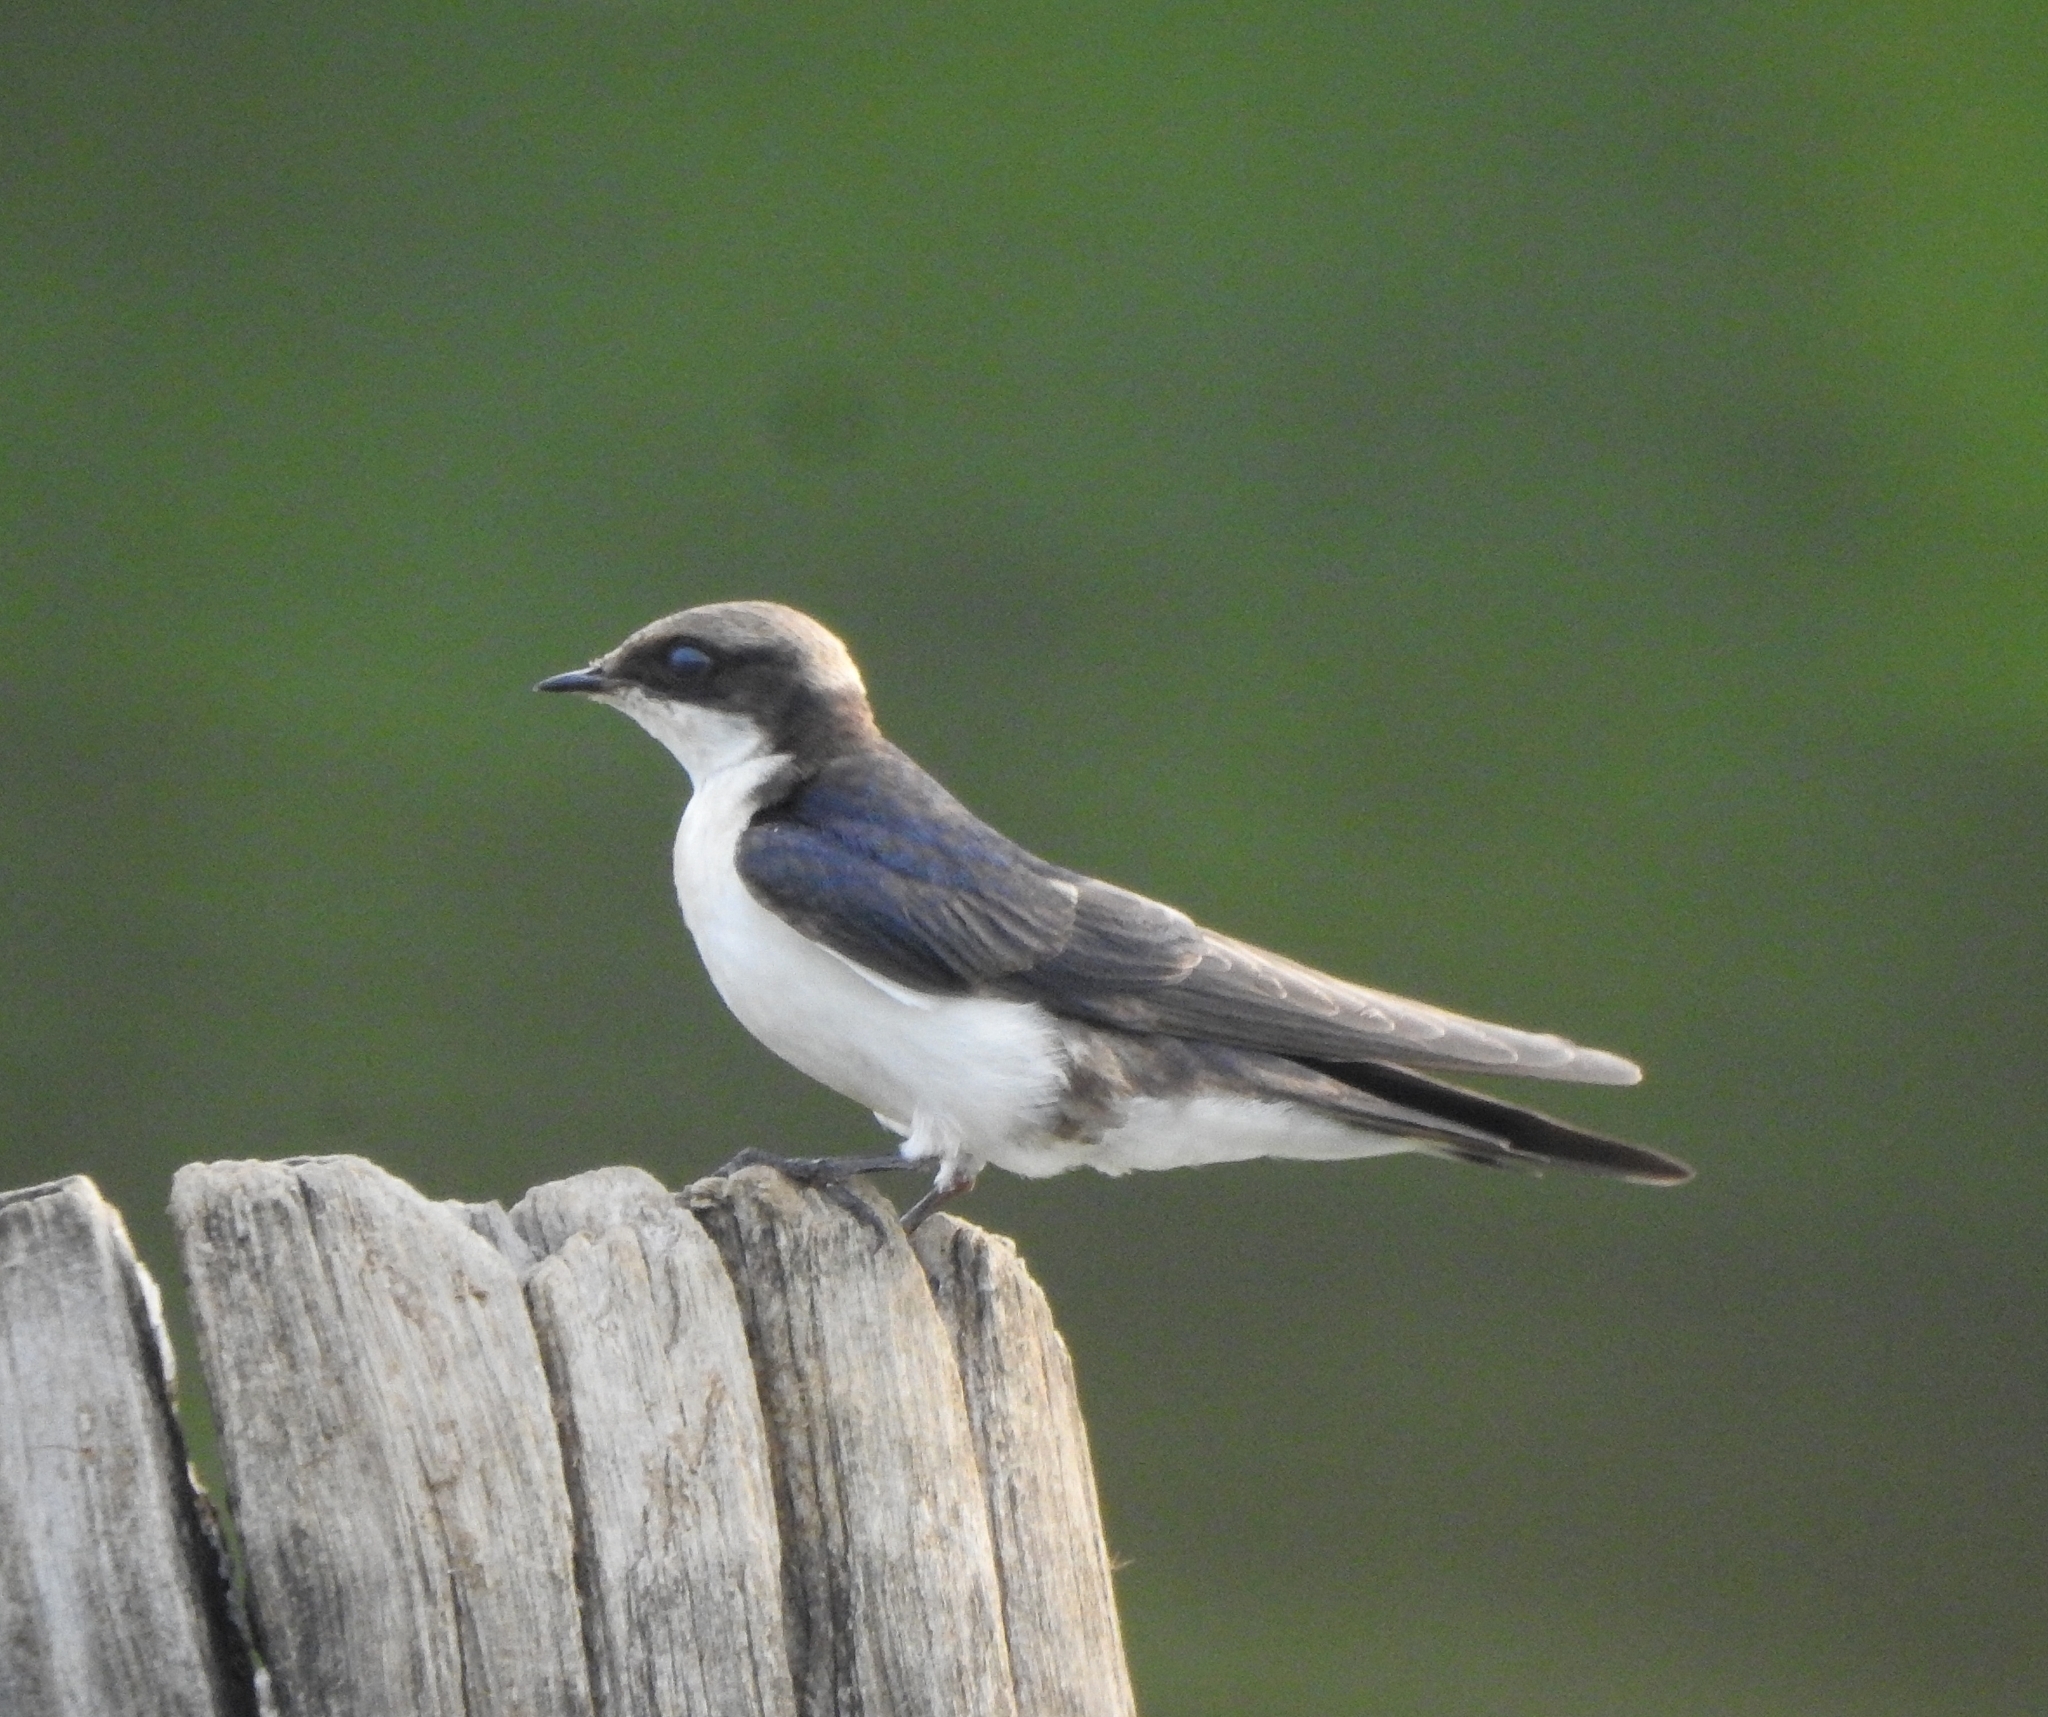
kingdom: Animalia
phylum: Chordata
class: Aves
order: Passeriformes
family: Hirundinidae
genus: Hirundo
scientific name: Hirundo smithii
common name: Wire-tailed swallow
